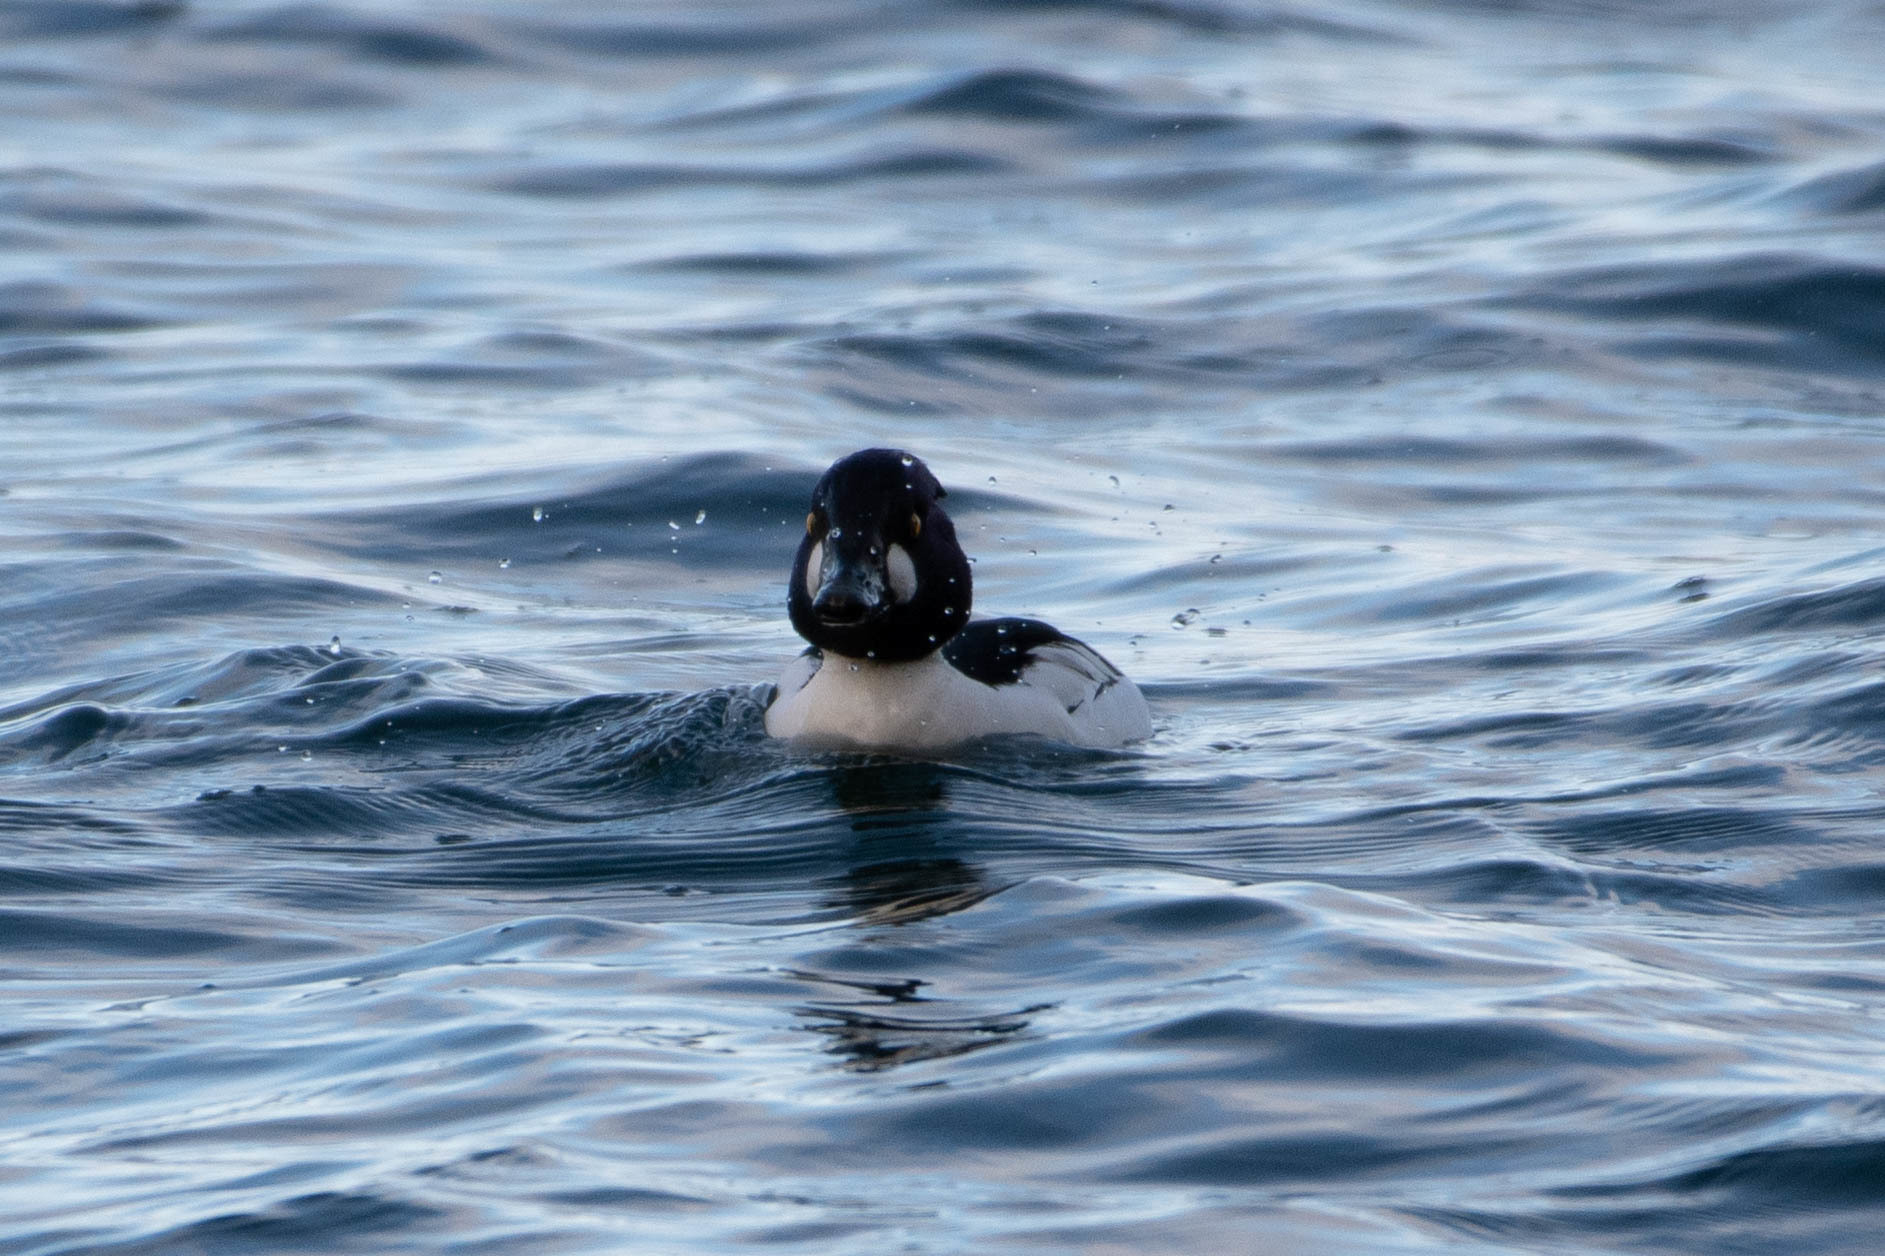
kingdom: Animalia
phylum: Chordata
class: Aves
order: Anseriformes
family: Anatidae
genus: Bucephala
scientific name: Bucephala clangula
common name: Common goldeneye
